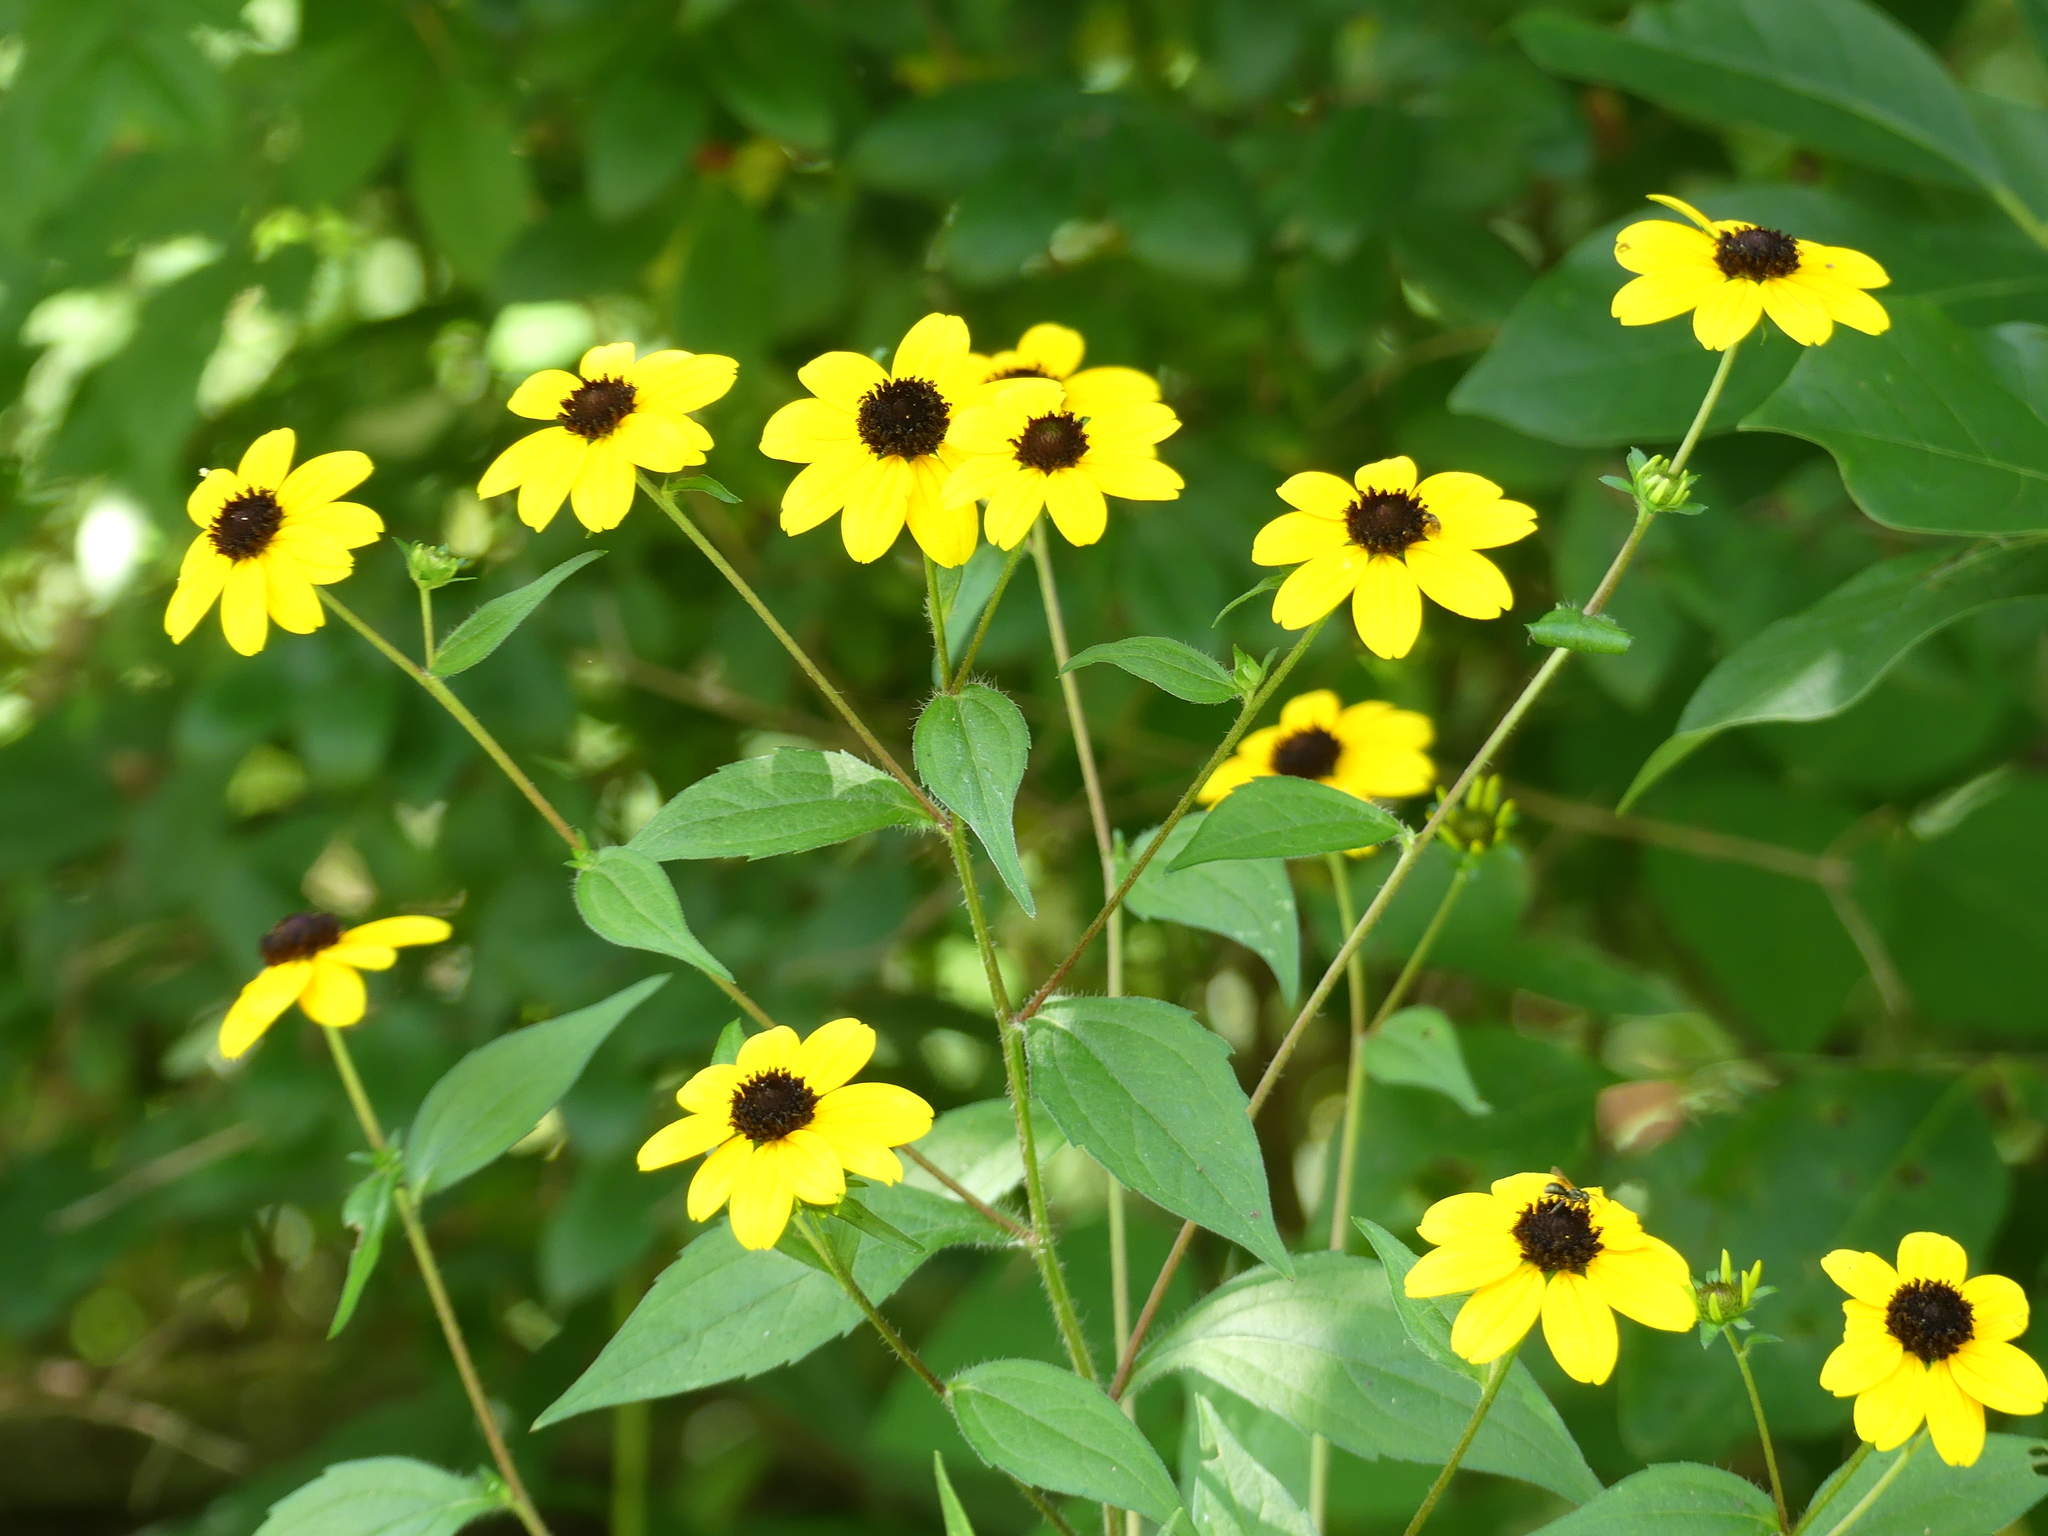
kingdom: Plantae
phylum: Tracheophyta
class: Magnoliopsida
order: Asterales
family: Asteraceae
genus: Rudbeckia
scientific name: Rudbeckia triloba
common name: Thin-leaved coneflower
